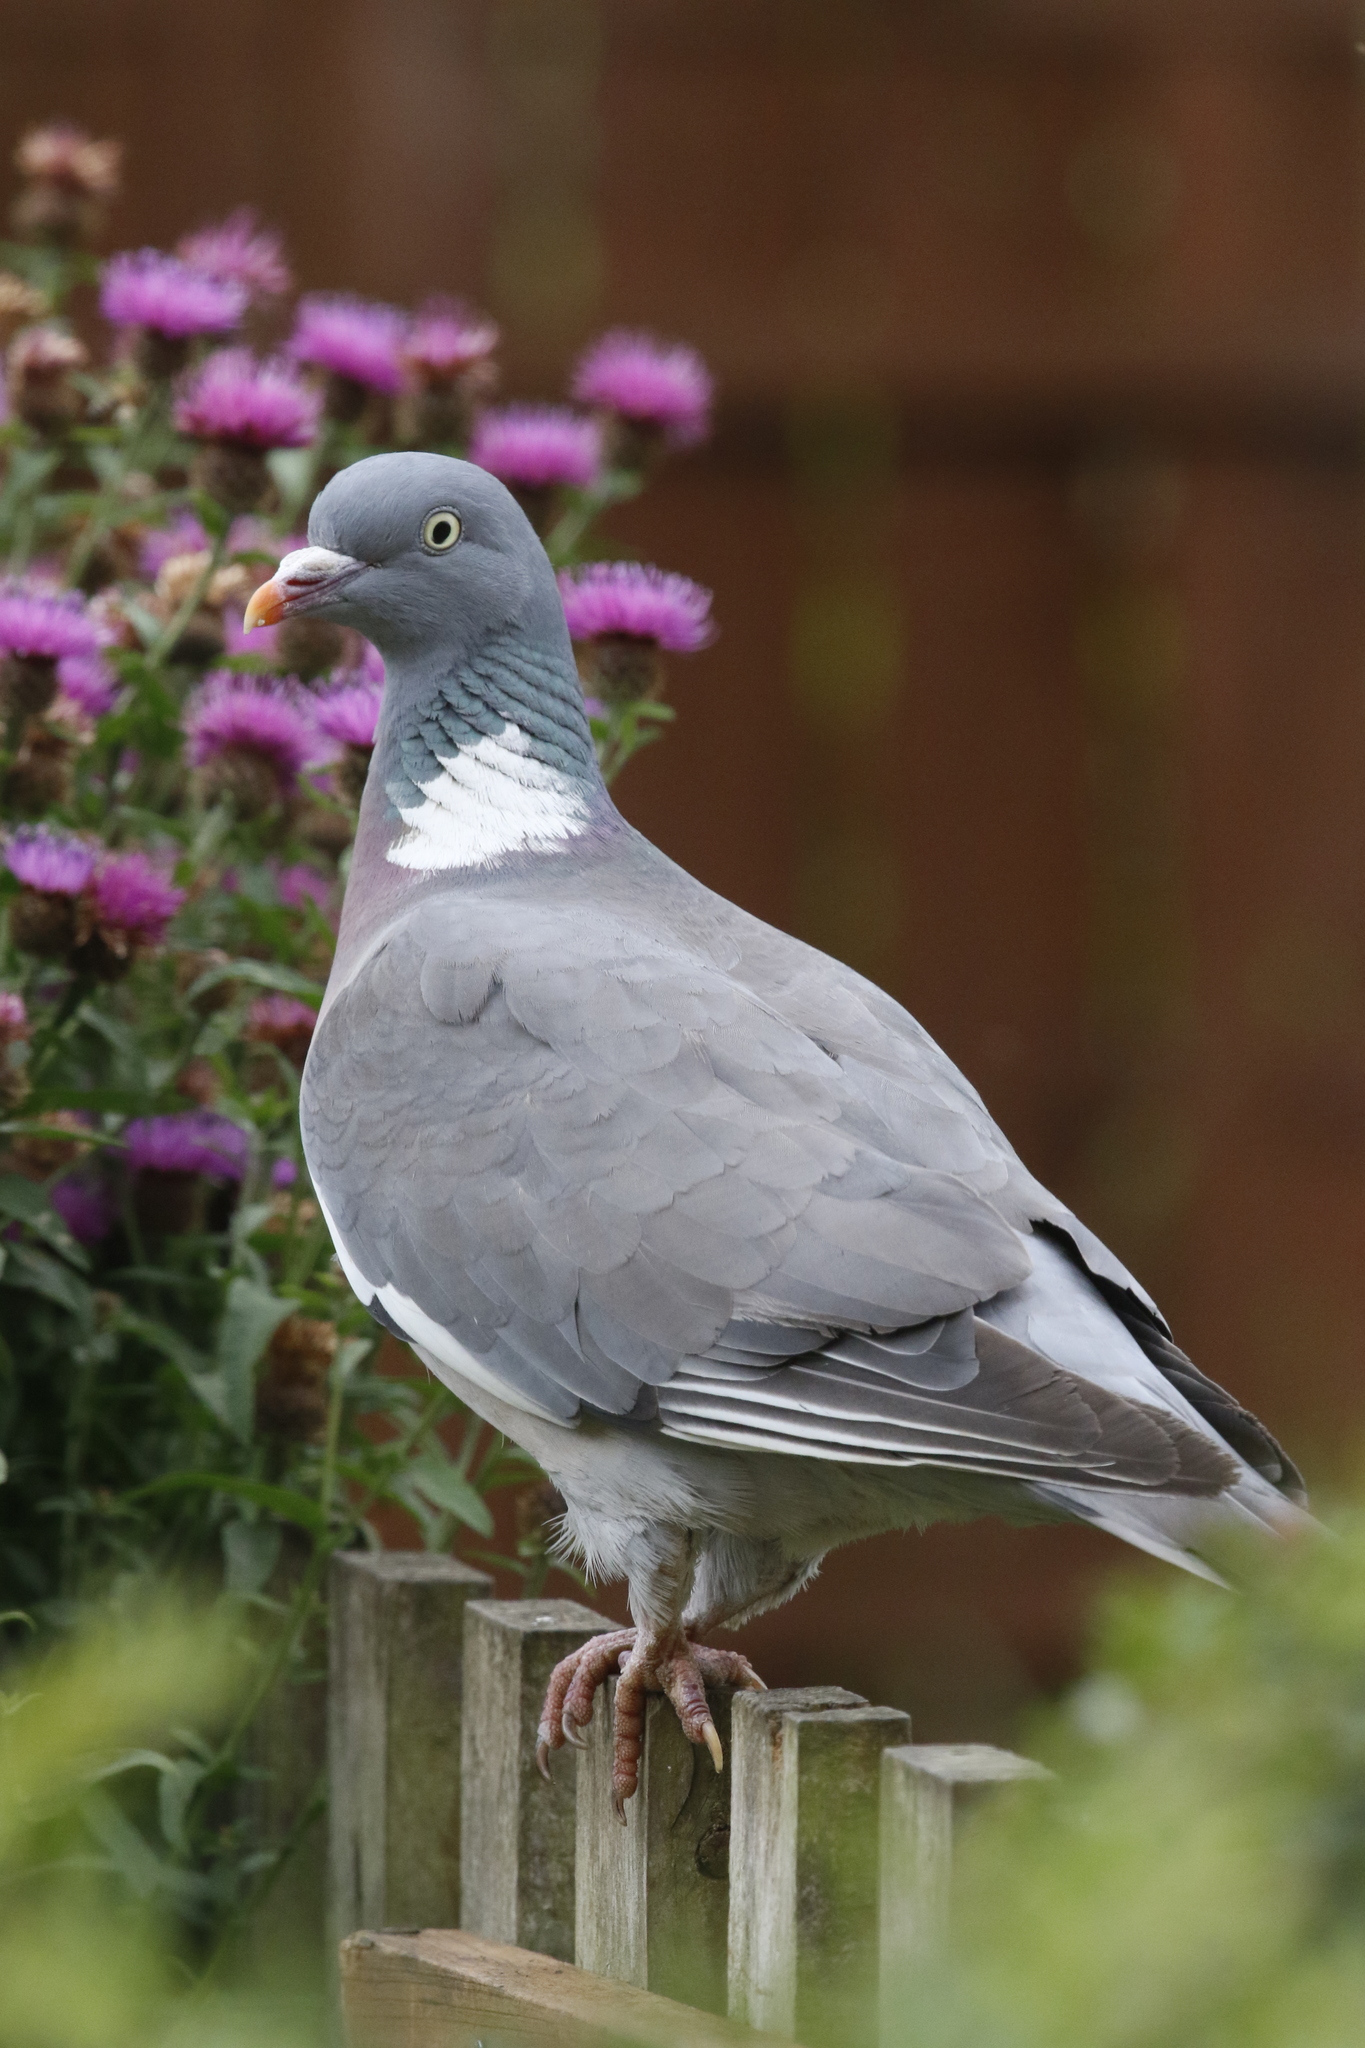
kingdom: Animalia
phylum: Chordata
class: Aves
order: Columbiformes
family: Columbidae
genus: Columba
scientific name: Columba palumbus
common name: Common wood pigeon
